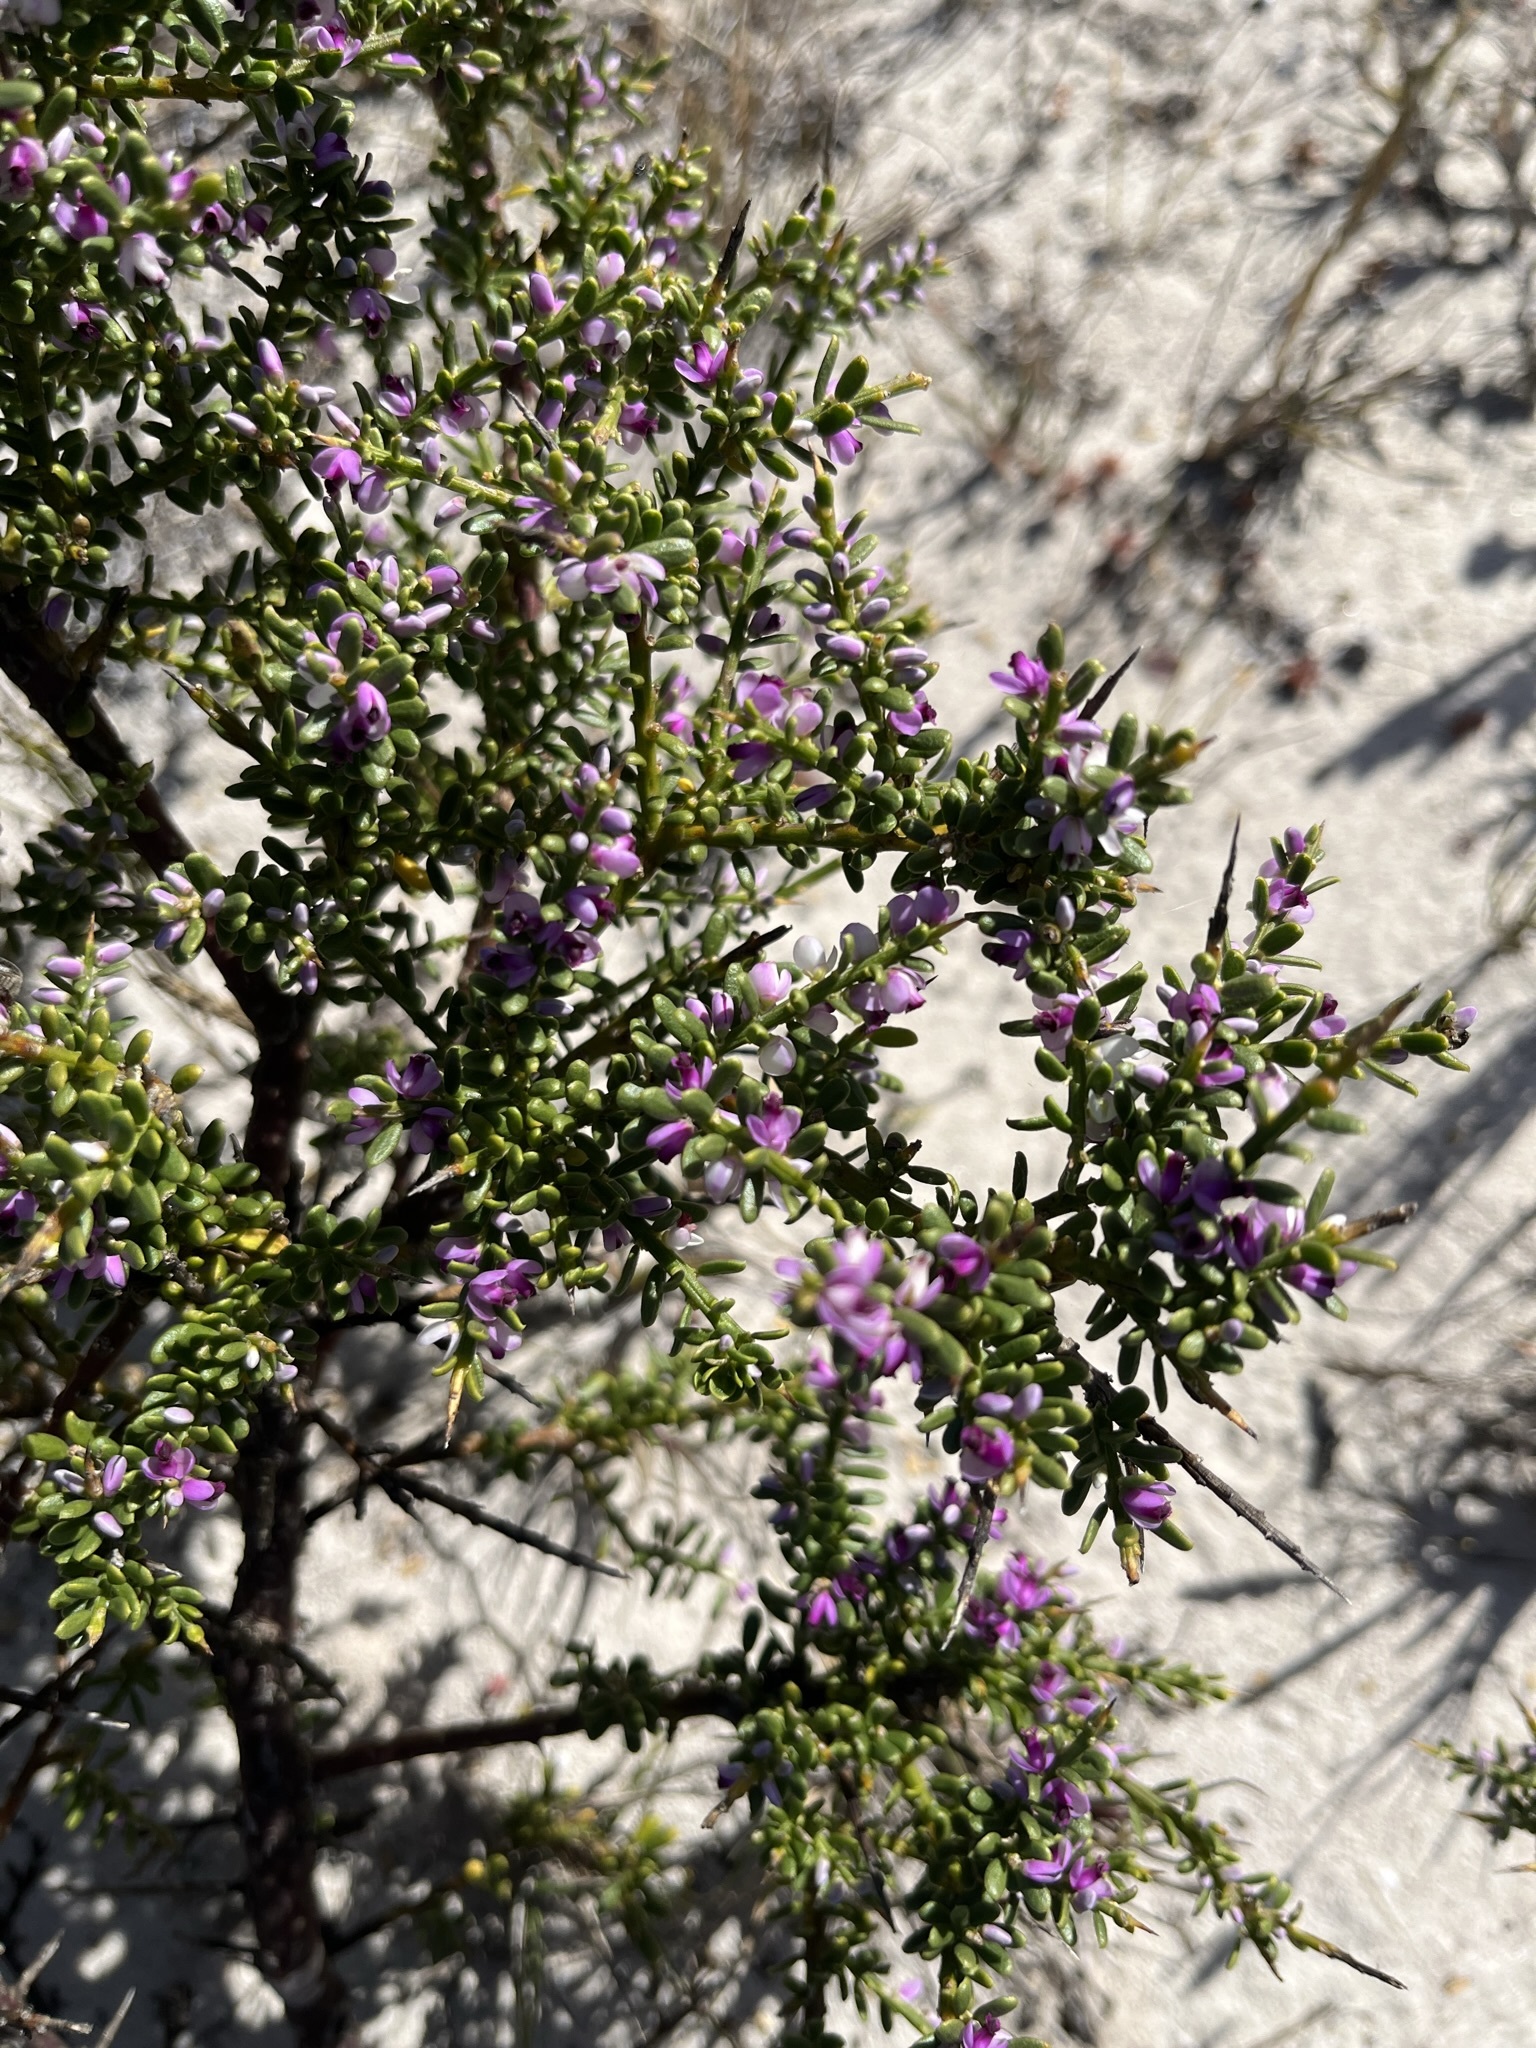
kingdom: Plantae
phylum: Tracheophyta
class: Magnoliopsida
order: Fabales
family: Polygalaceae
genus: Muraltia
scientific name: Muraltia spinosa
